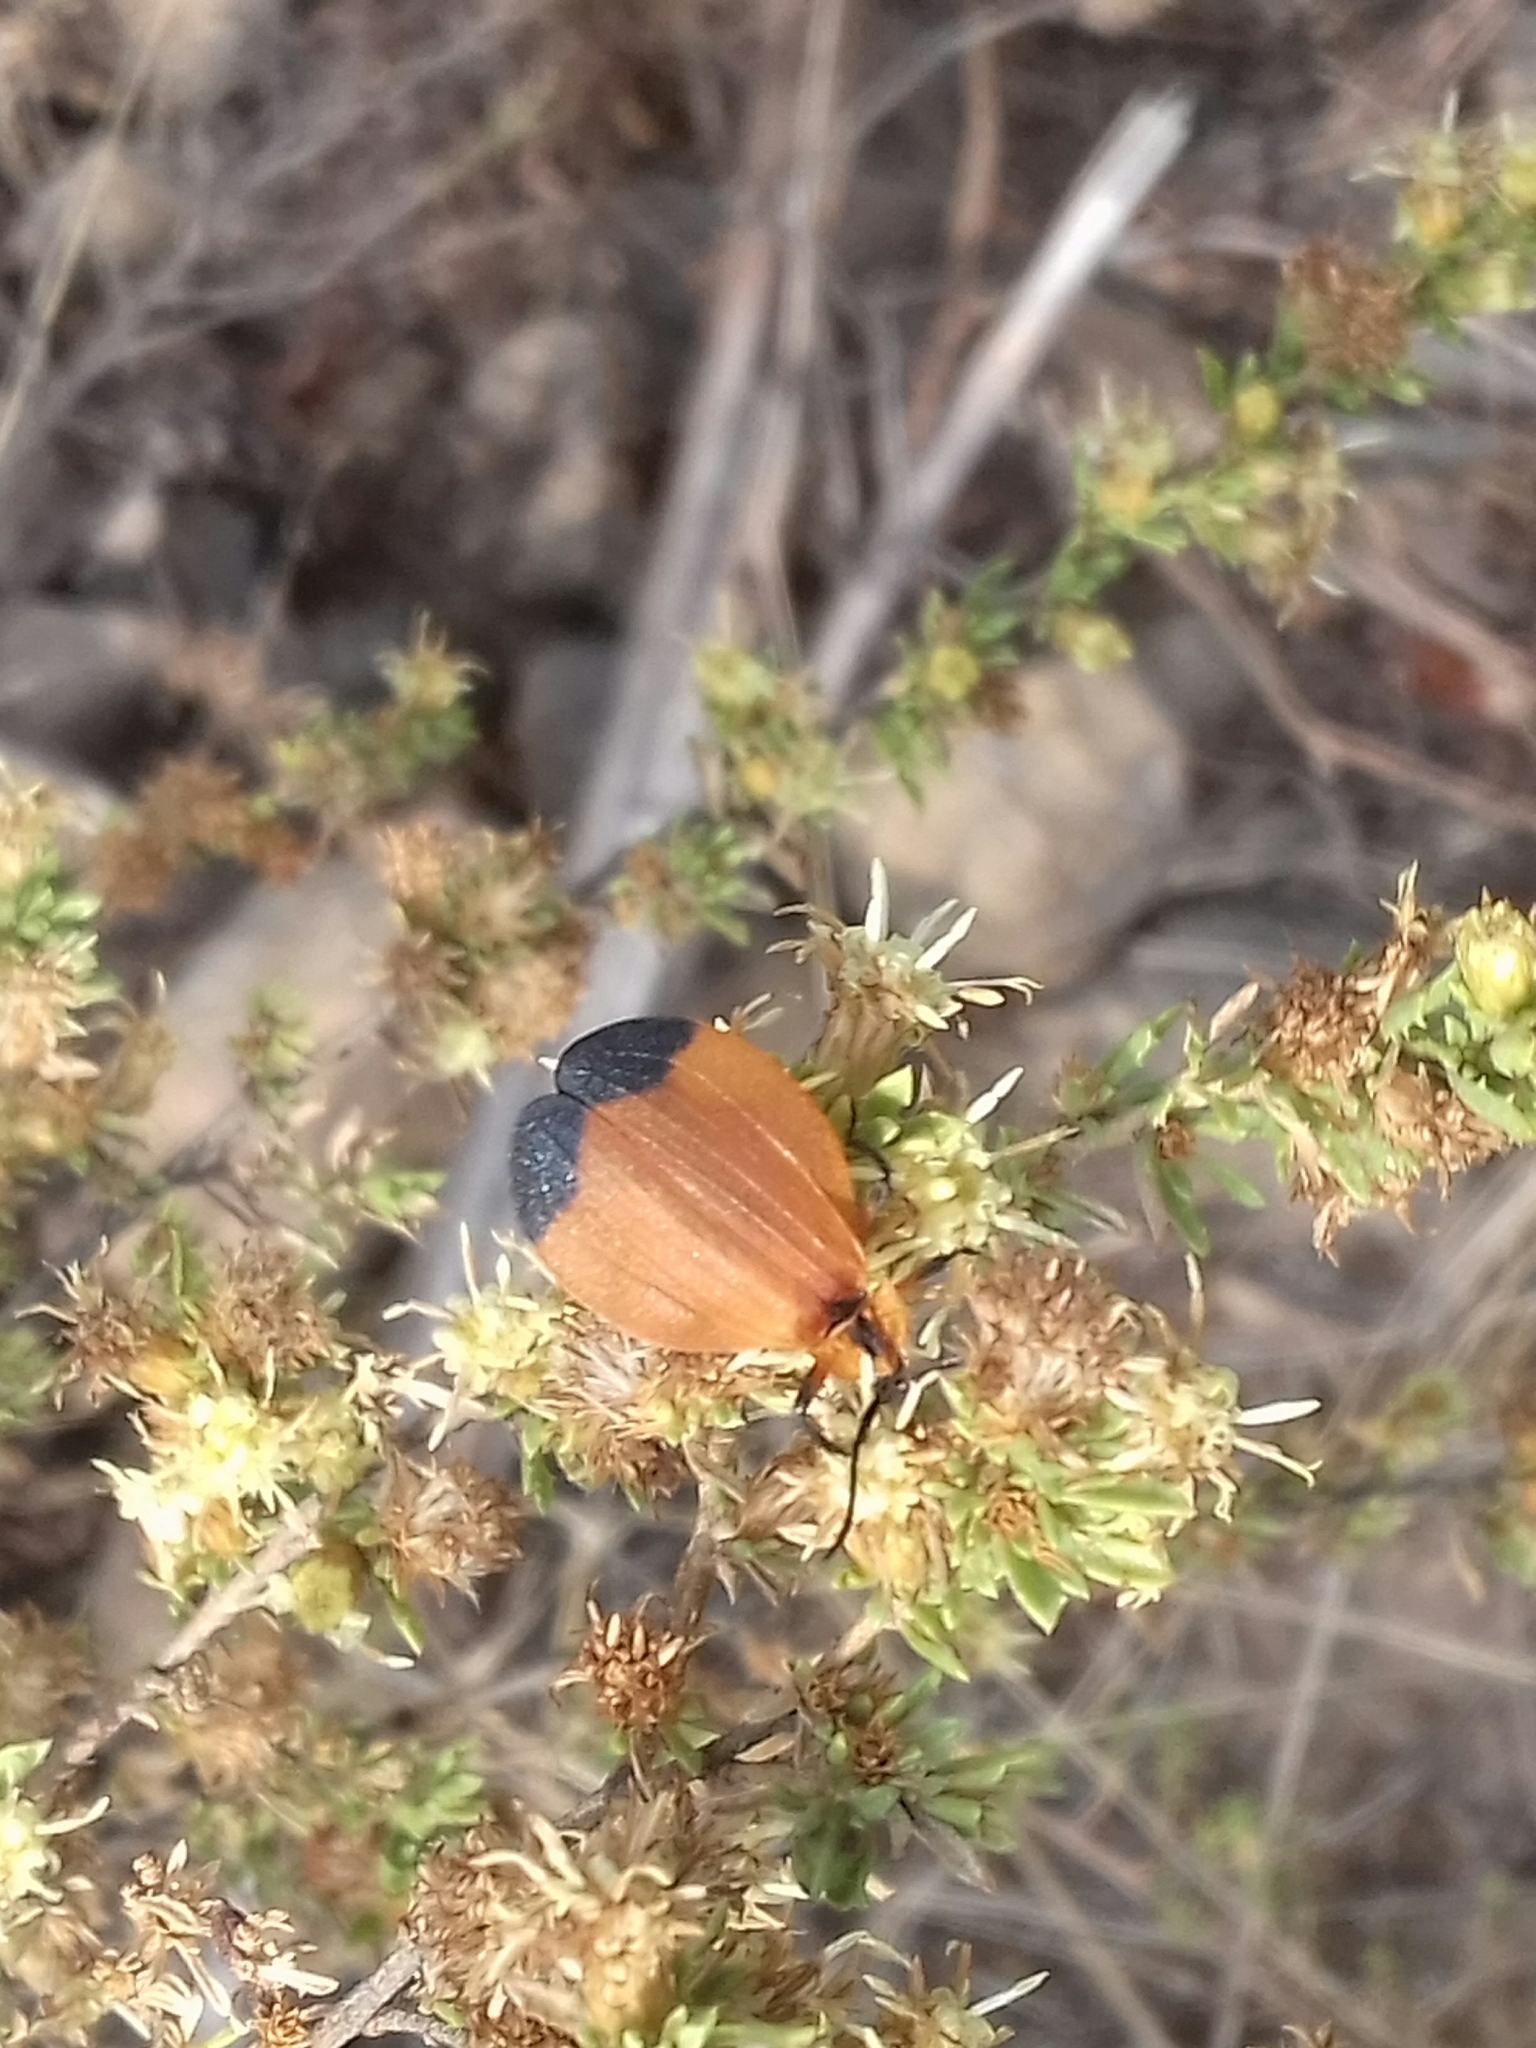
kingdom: Animalia
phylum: Arthropoda
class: Insecta
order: Coleoptera
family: Lycidae
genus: Lycus
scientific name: Lycus fernandezi
